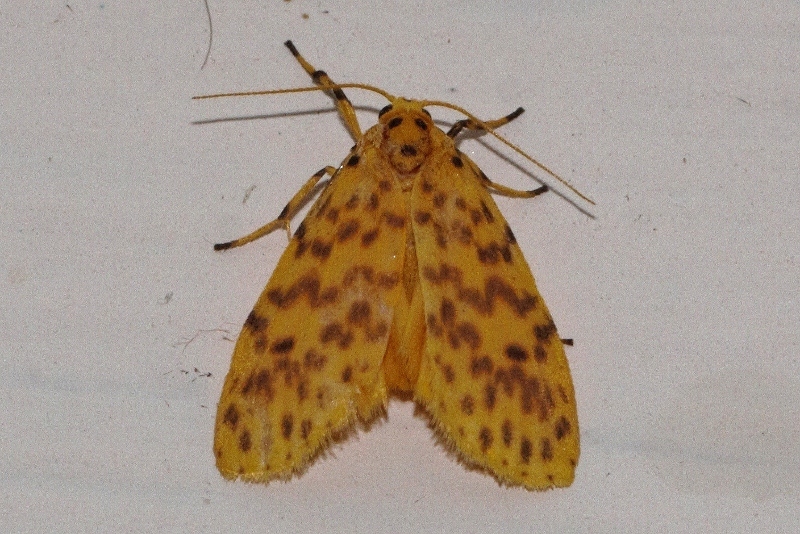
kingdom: Animalia
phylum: Arthropoda
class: Insecta
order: Lepidoptera
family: Erebidae
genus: Afrasura
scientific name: Afrasura rivulosa
